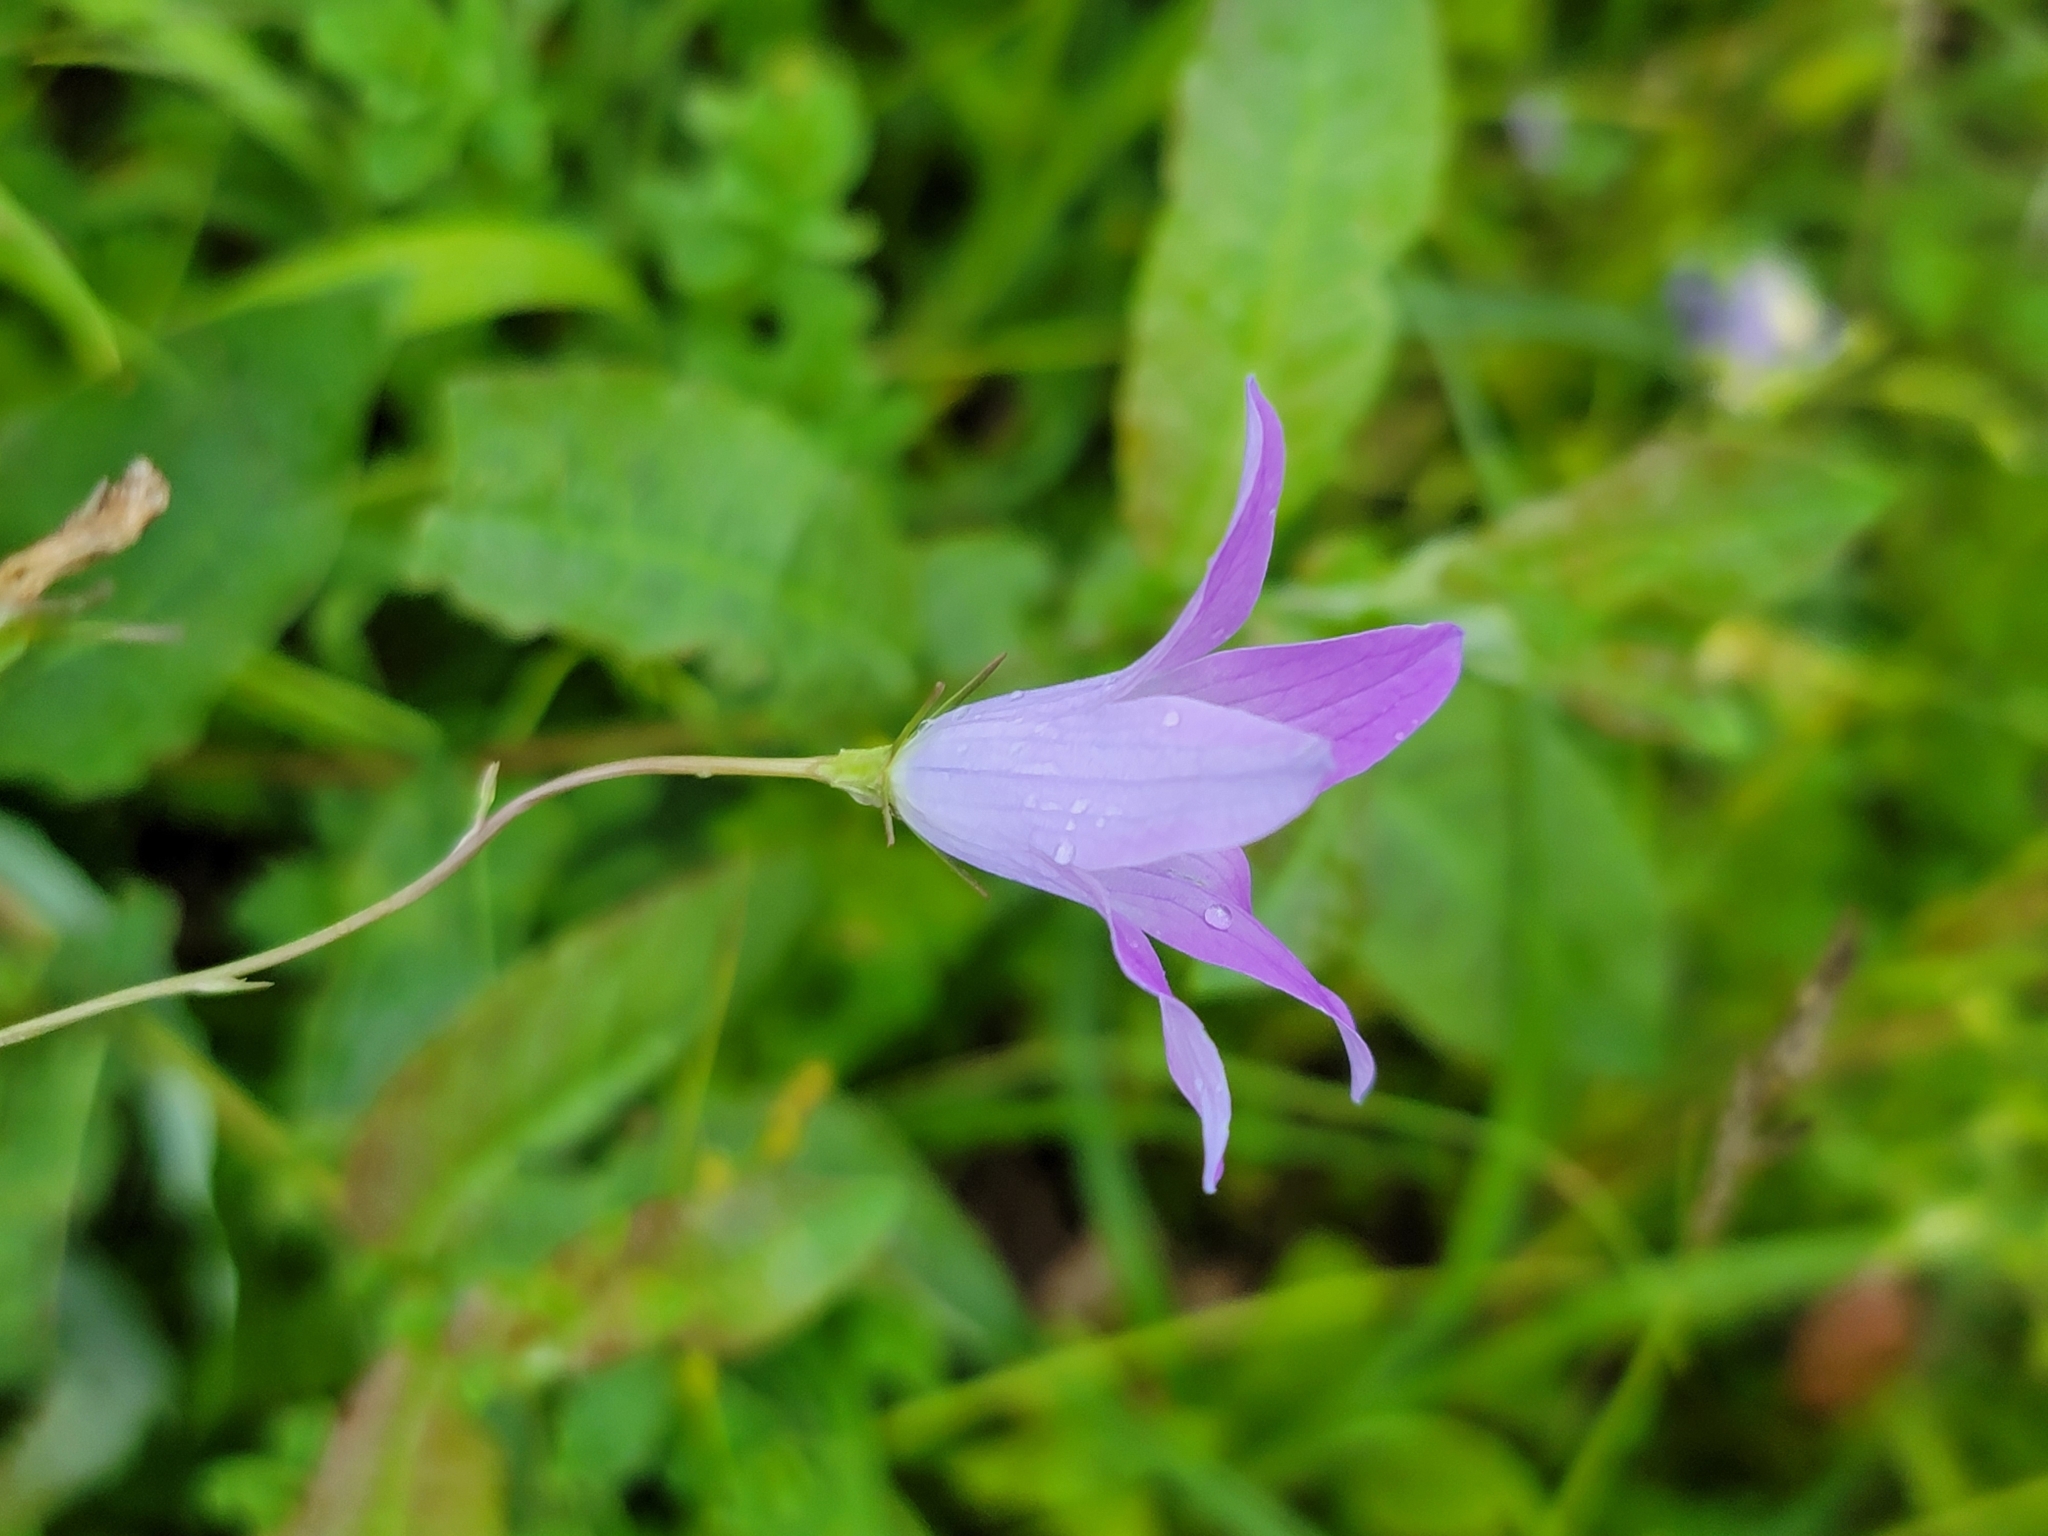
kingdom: Plantae
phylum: Tracheophyta
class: Magnoliopsida
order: Asterales
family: Campanulaceae
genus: Campanula
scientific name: Campanula patula
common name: Spreading bellflower
